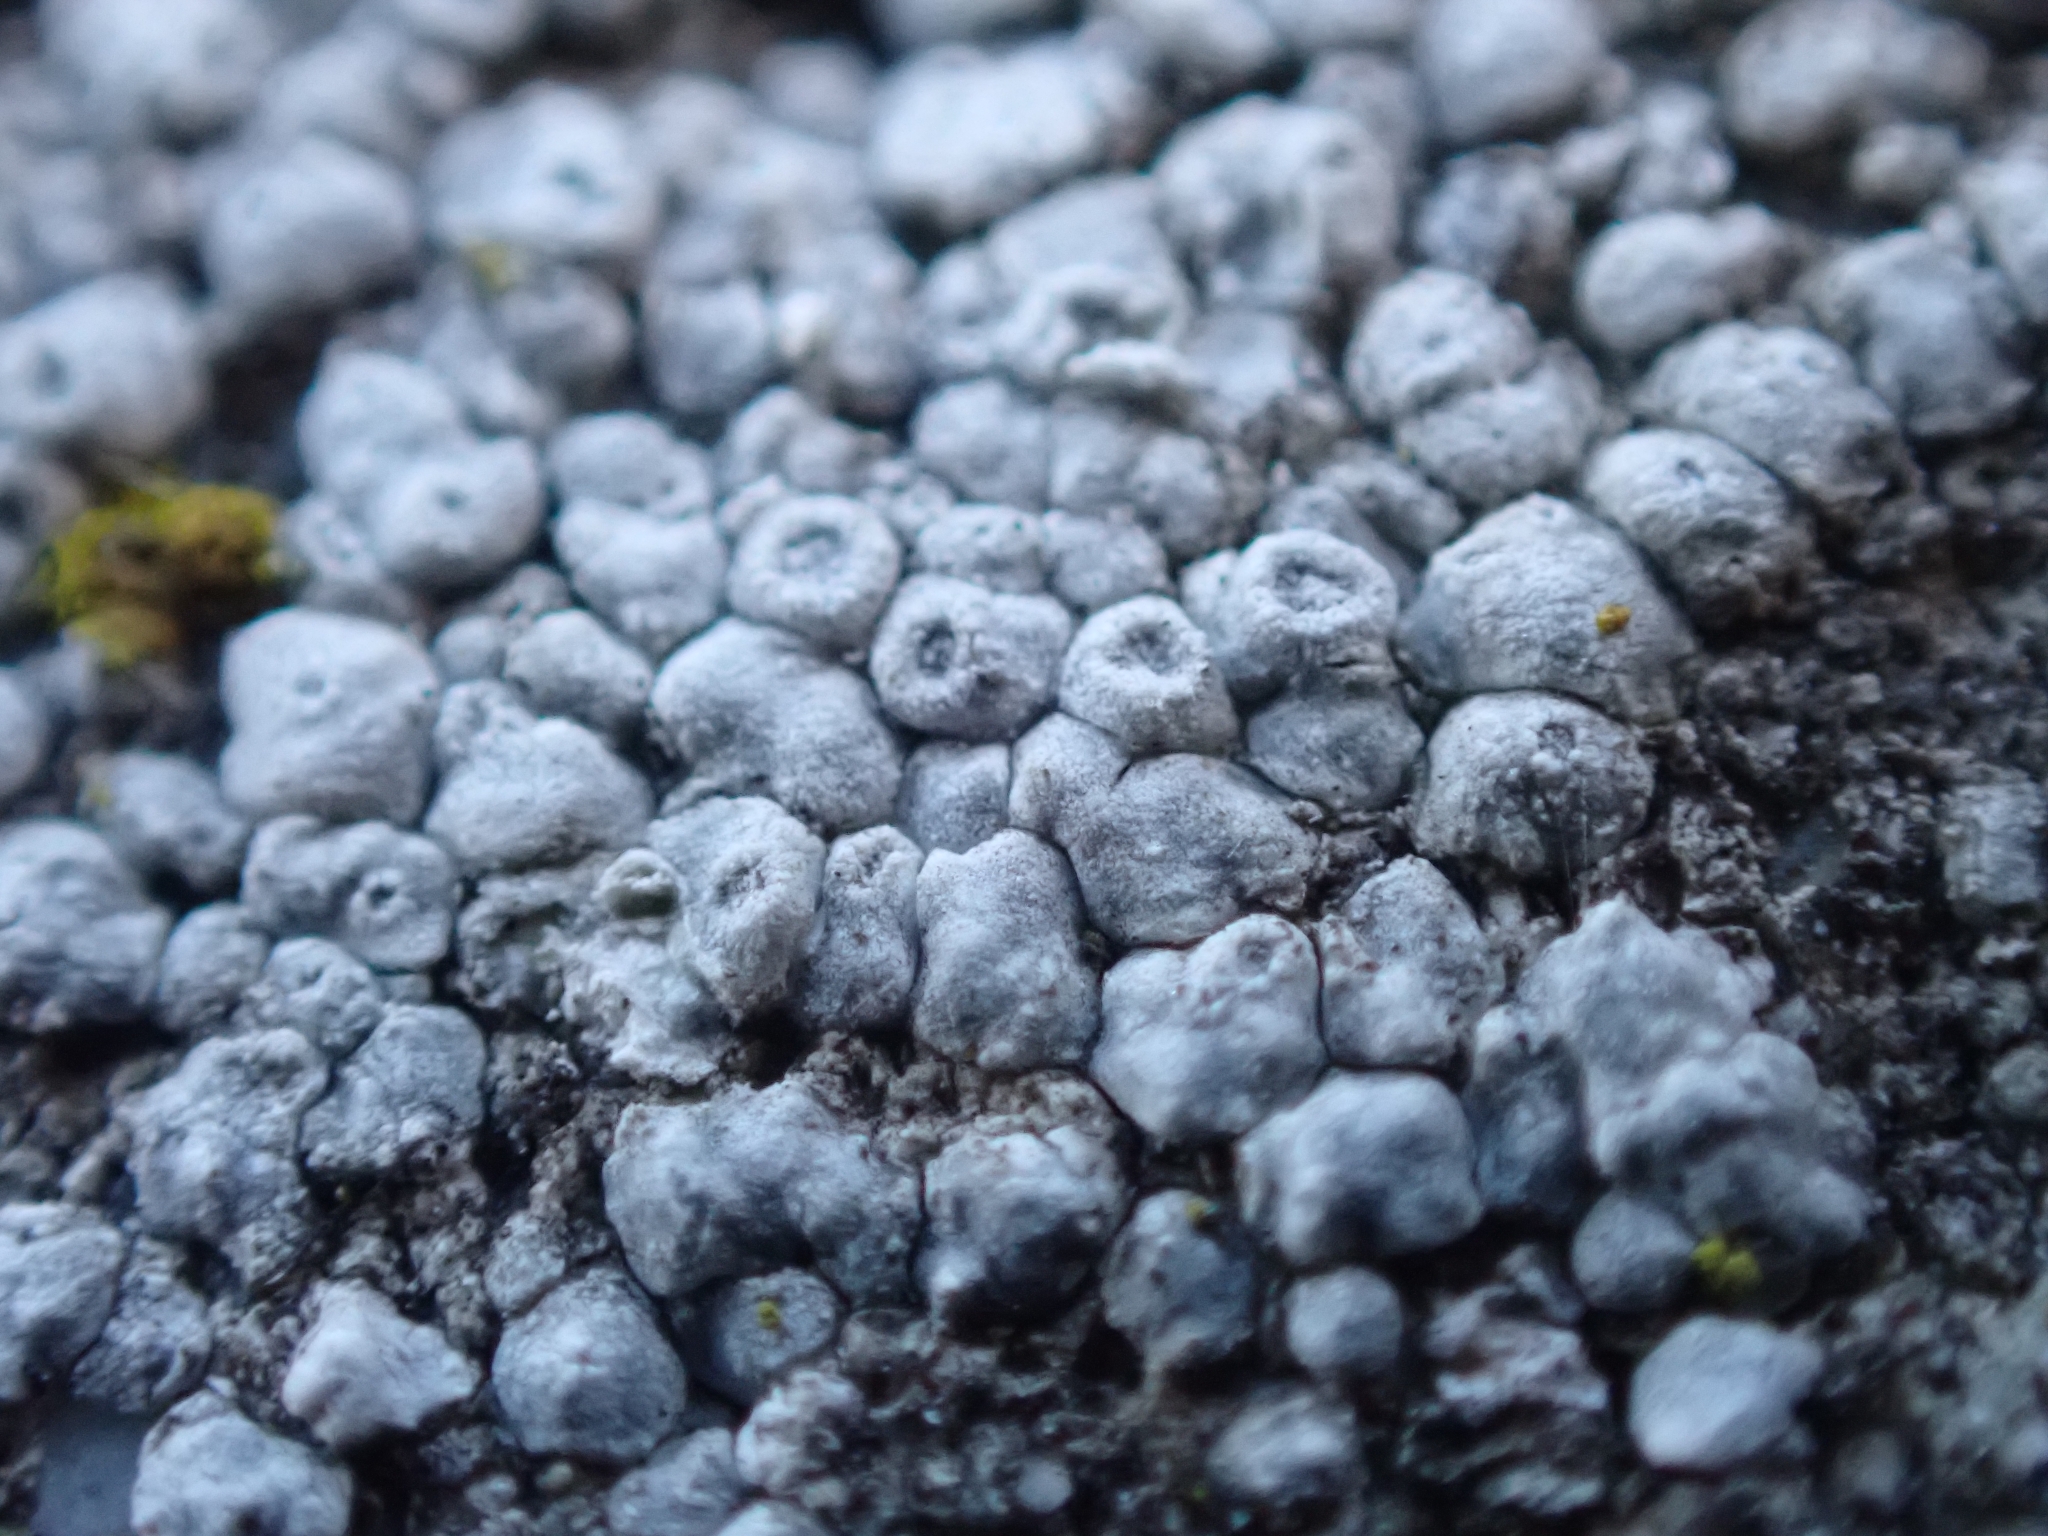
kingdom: Fungi
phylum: Ascomycota
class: Lecanoromycetes
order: Pertusariales
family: Megasporaceae
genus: Circinaria
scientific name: Circinaria contorta
